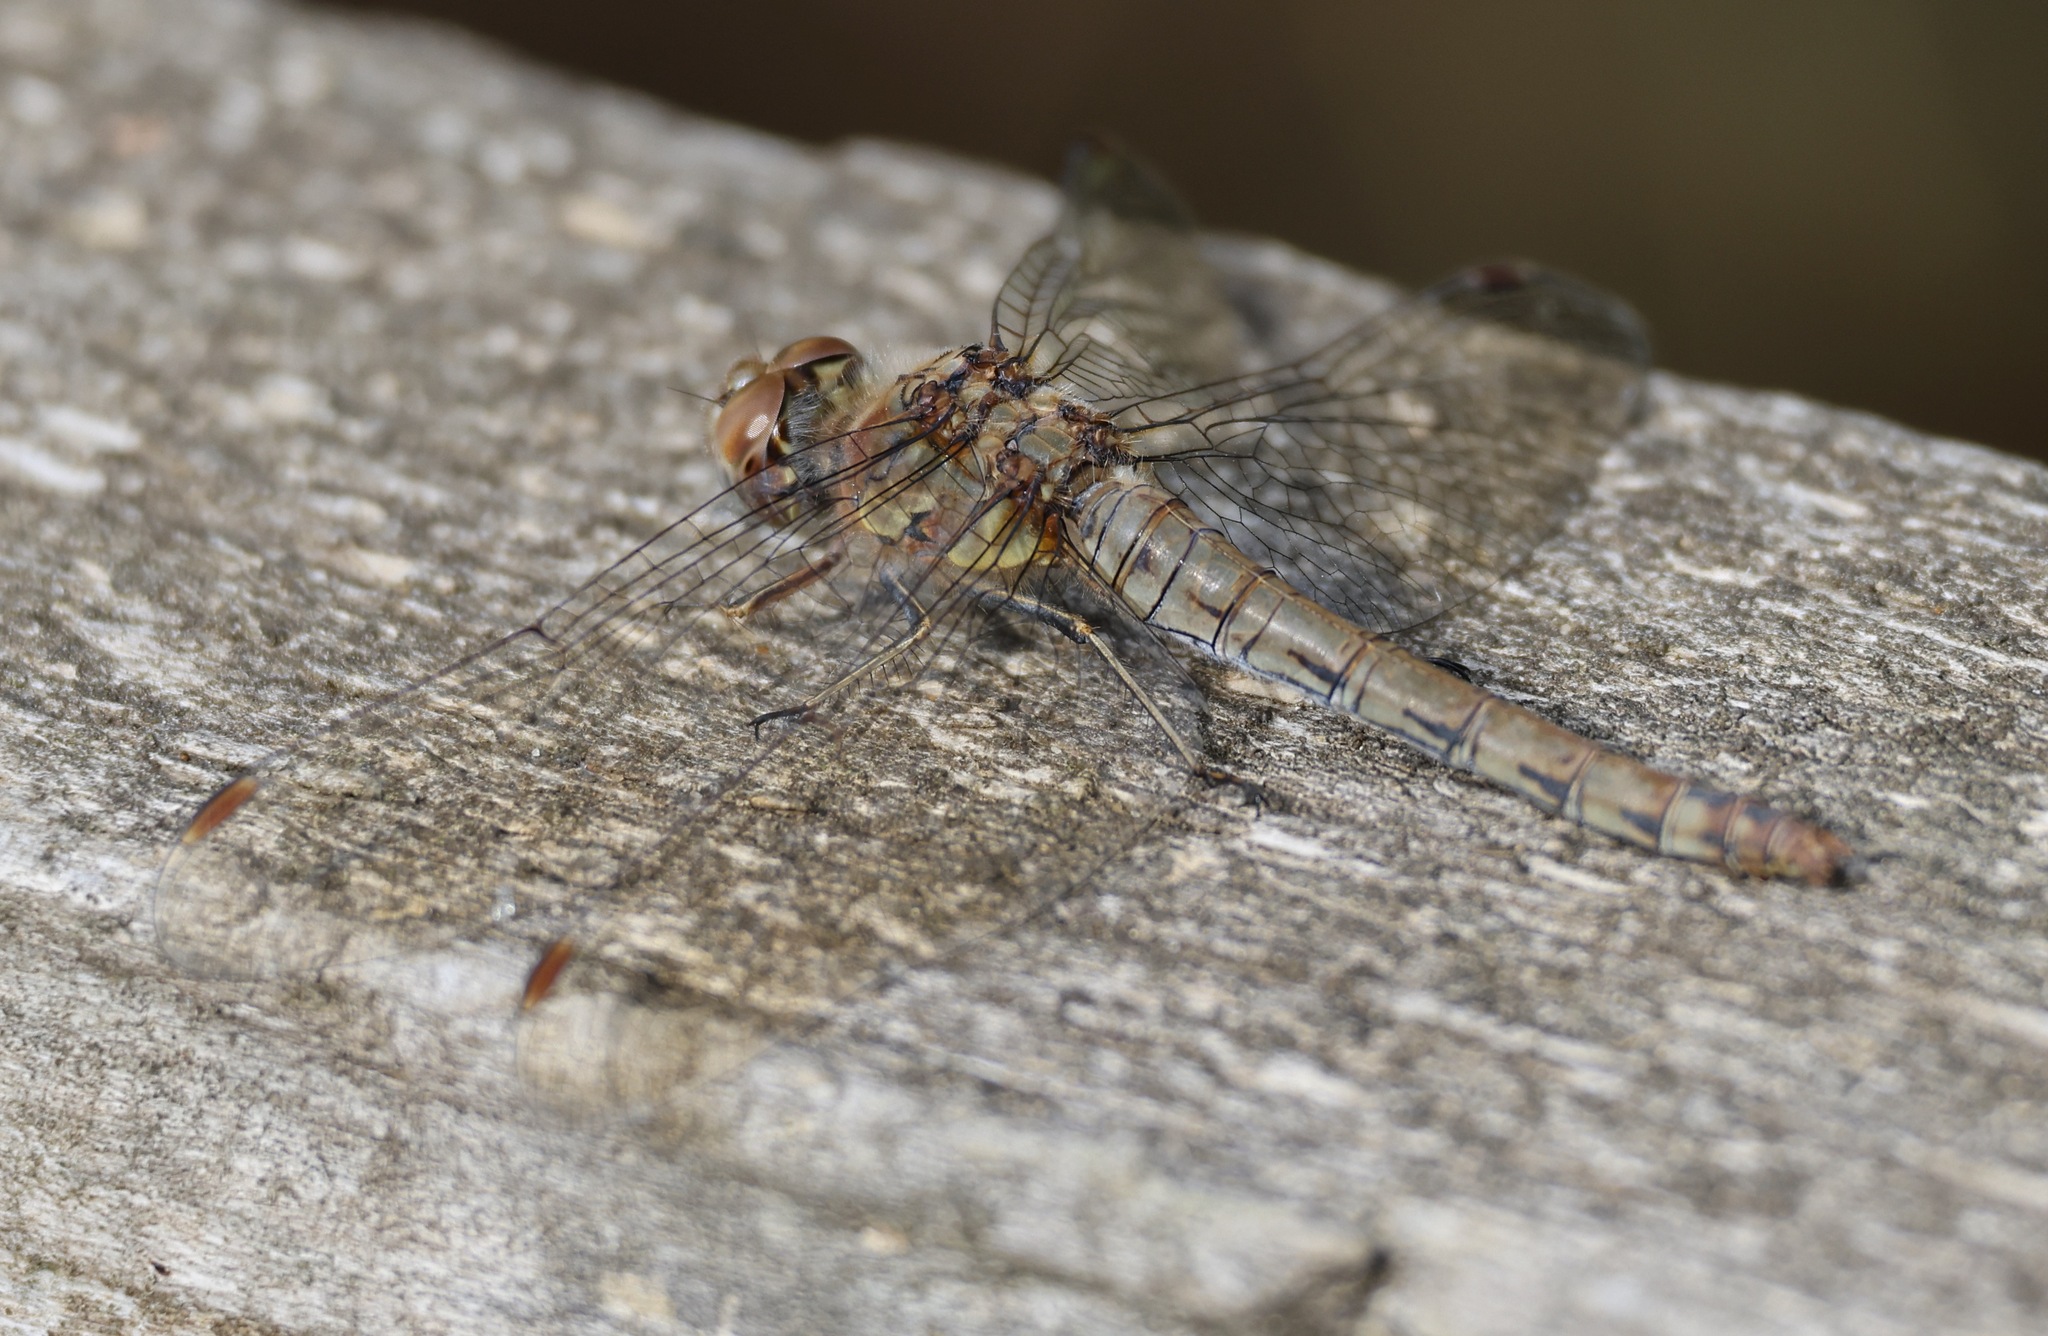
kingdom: Animalia
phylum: Arthropoda
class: Insecta
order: Odonata
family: Libellulidae
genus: Sympetrum
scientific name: Sympetrum striolatum
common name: Common darter
